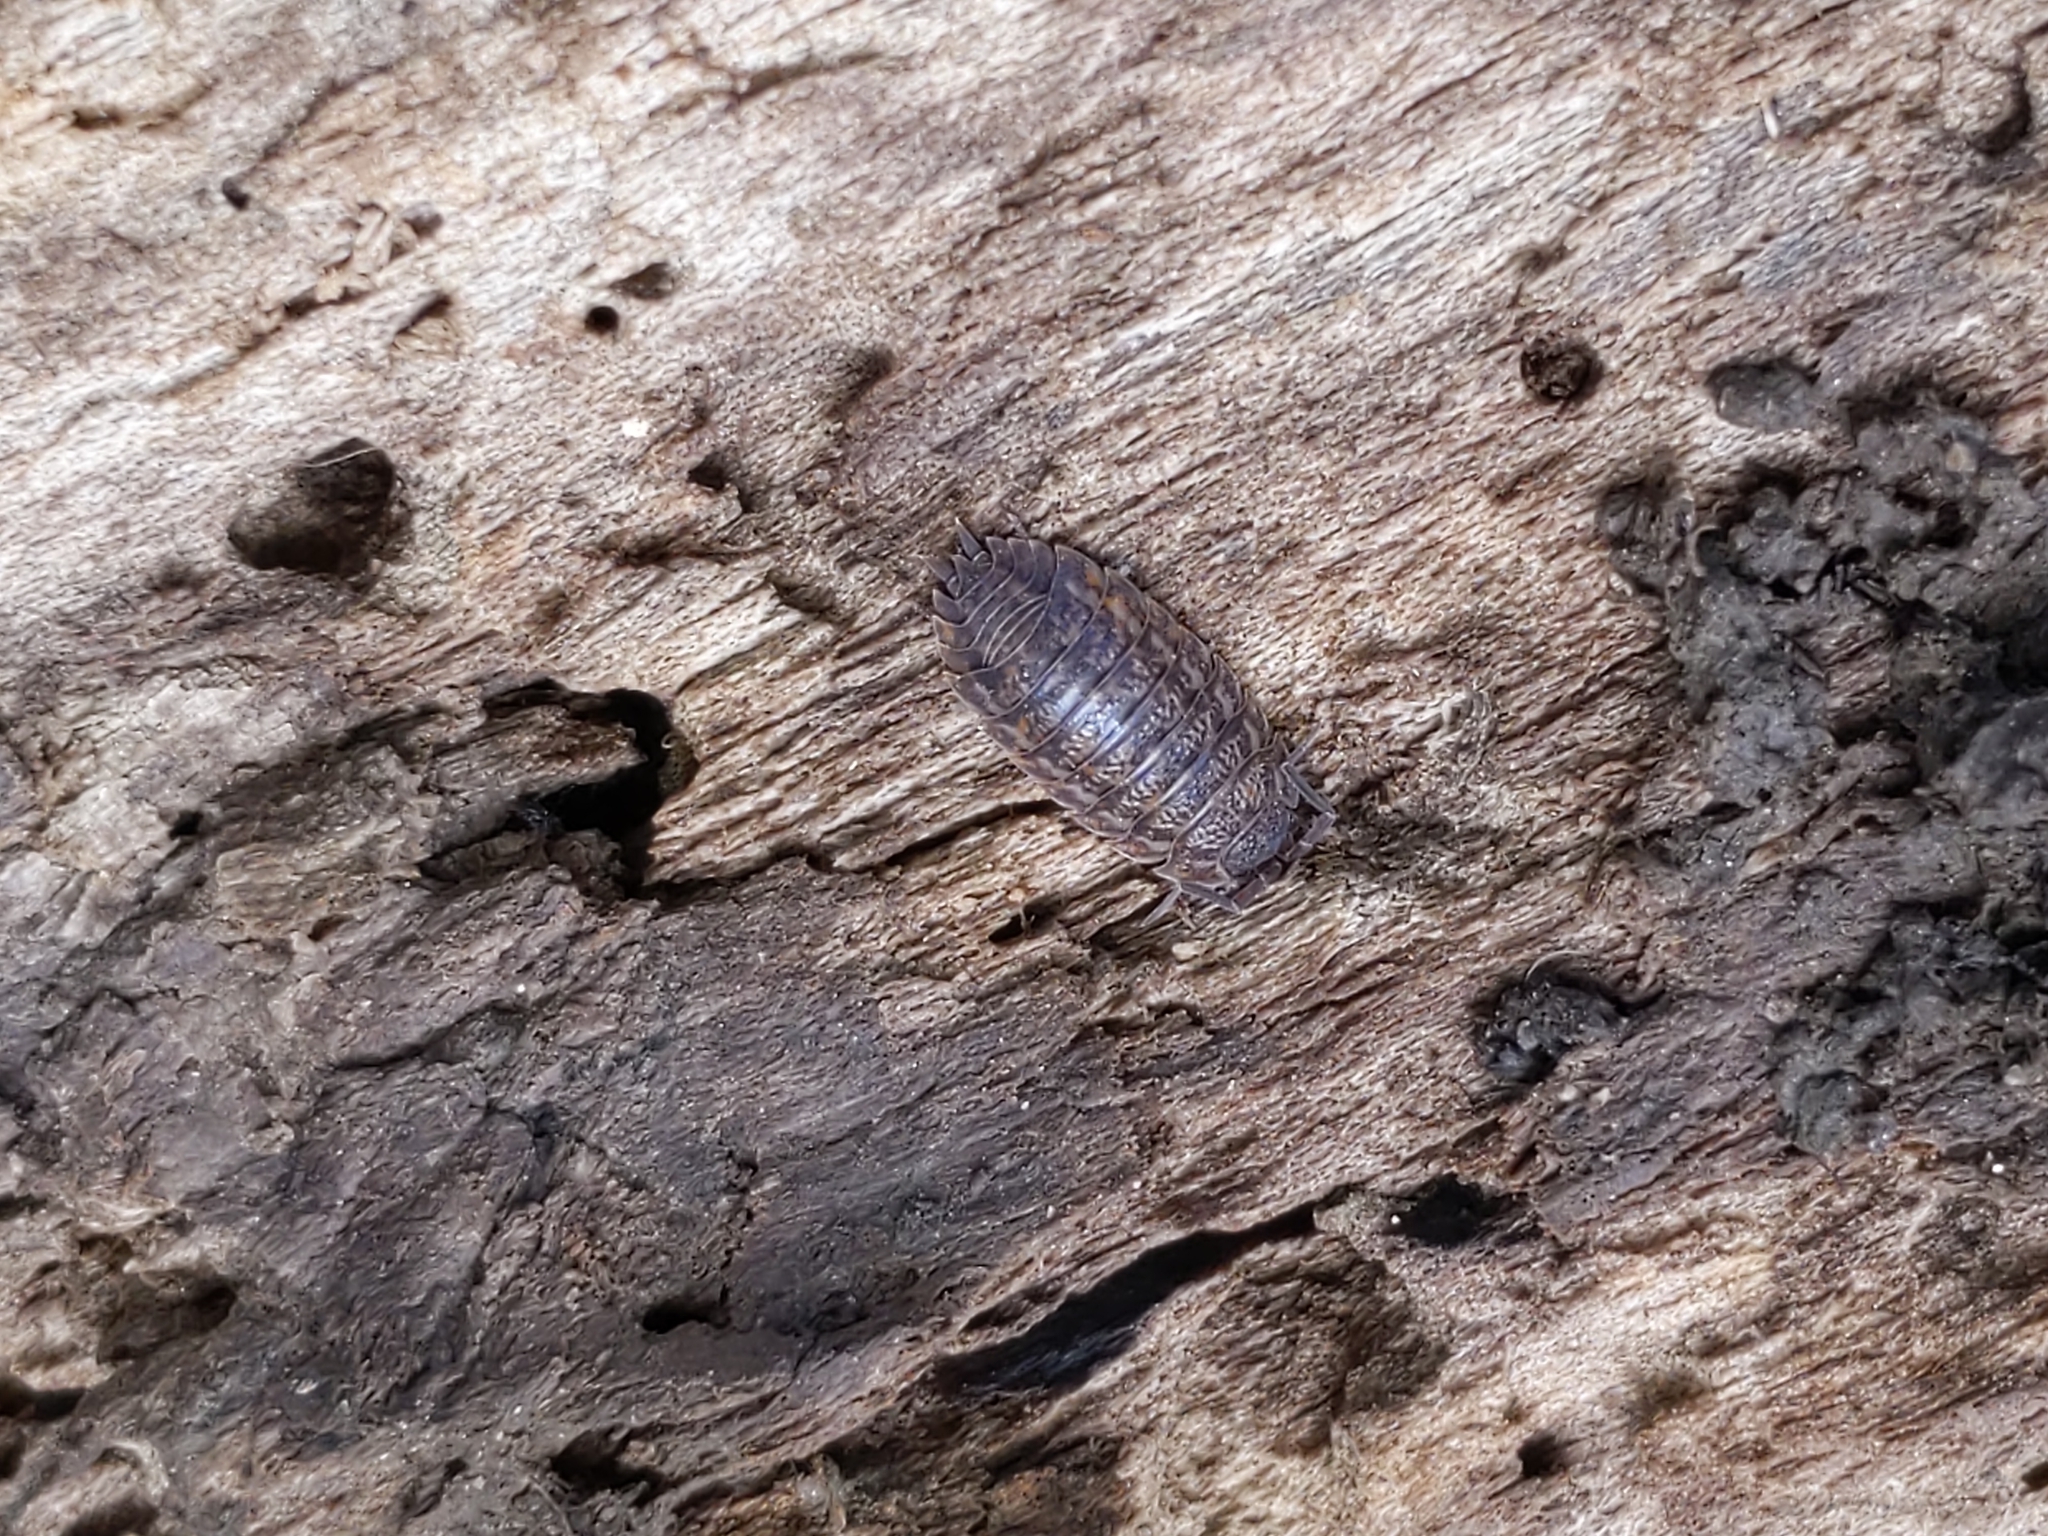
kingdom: Animalia
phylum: Arthropoda
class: Malacostraca
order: Isopoda
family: Trachelipodidae
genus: Trachelipus
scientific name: Trachelipus rathkii
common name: Isopod
